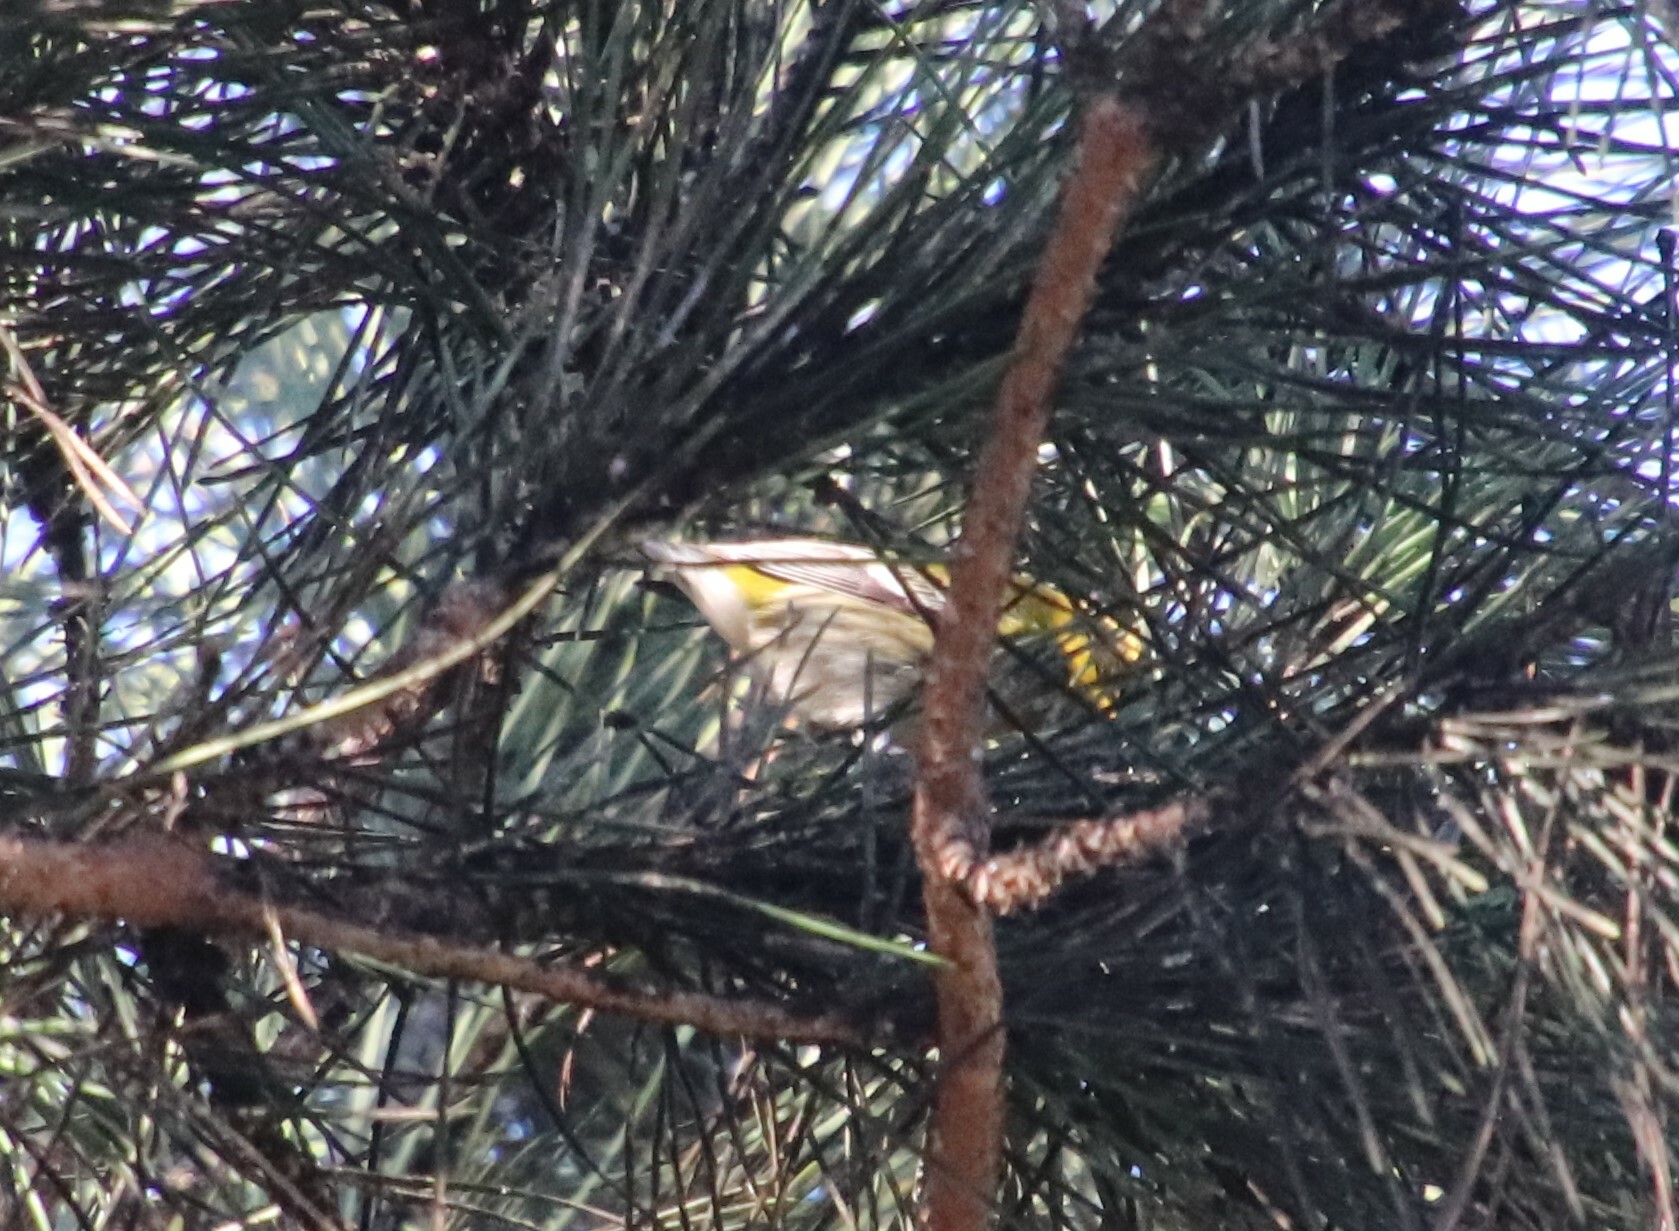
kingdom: Animalia
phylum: Chordata
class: Aves
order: Passeriformes
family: Parulidae
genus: Setophaga
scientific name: Setophaga townsendi
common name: Townsend's warbler
